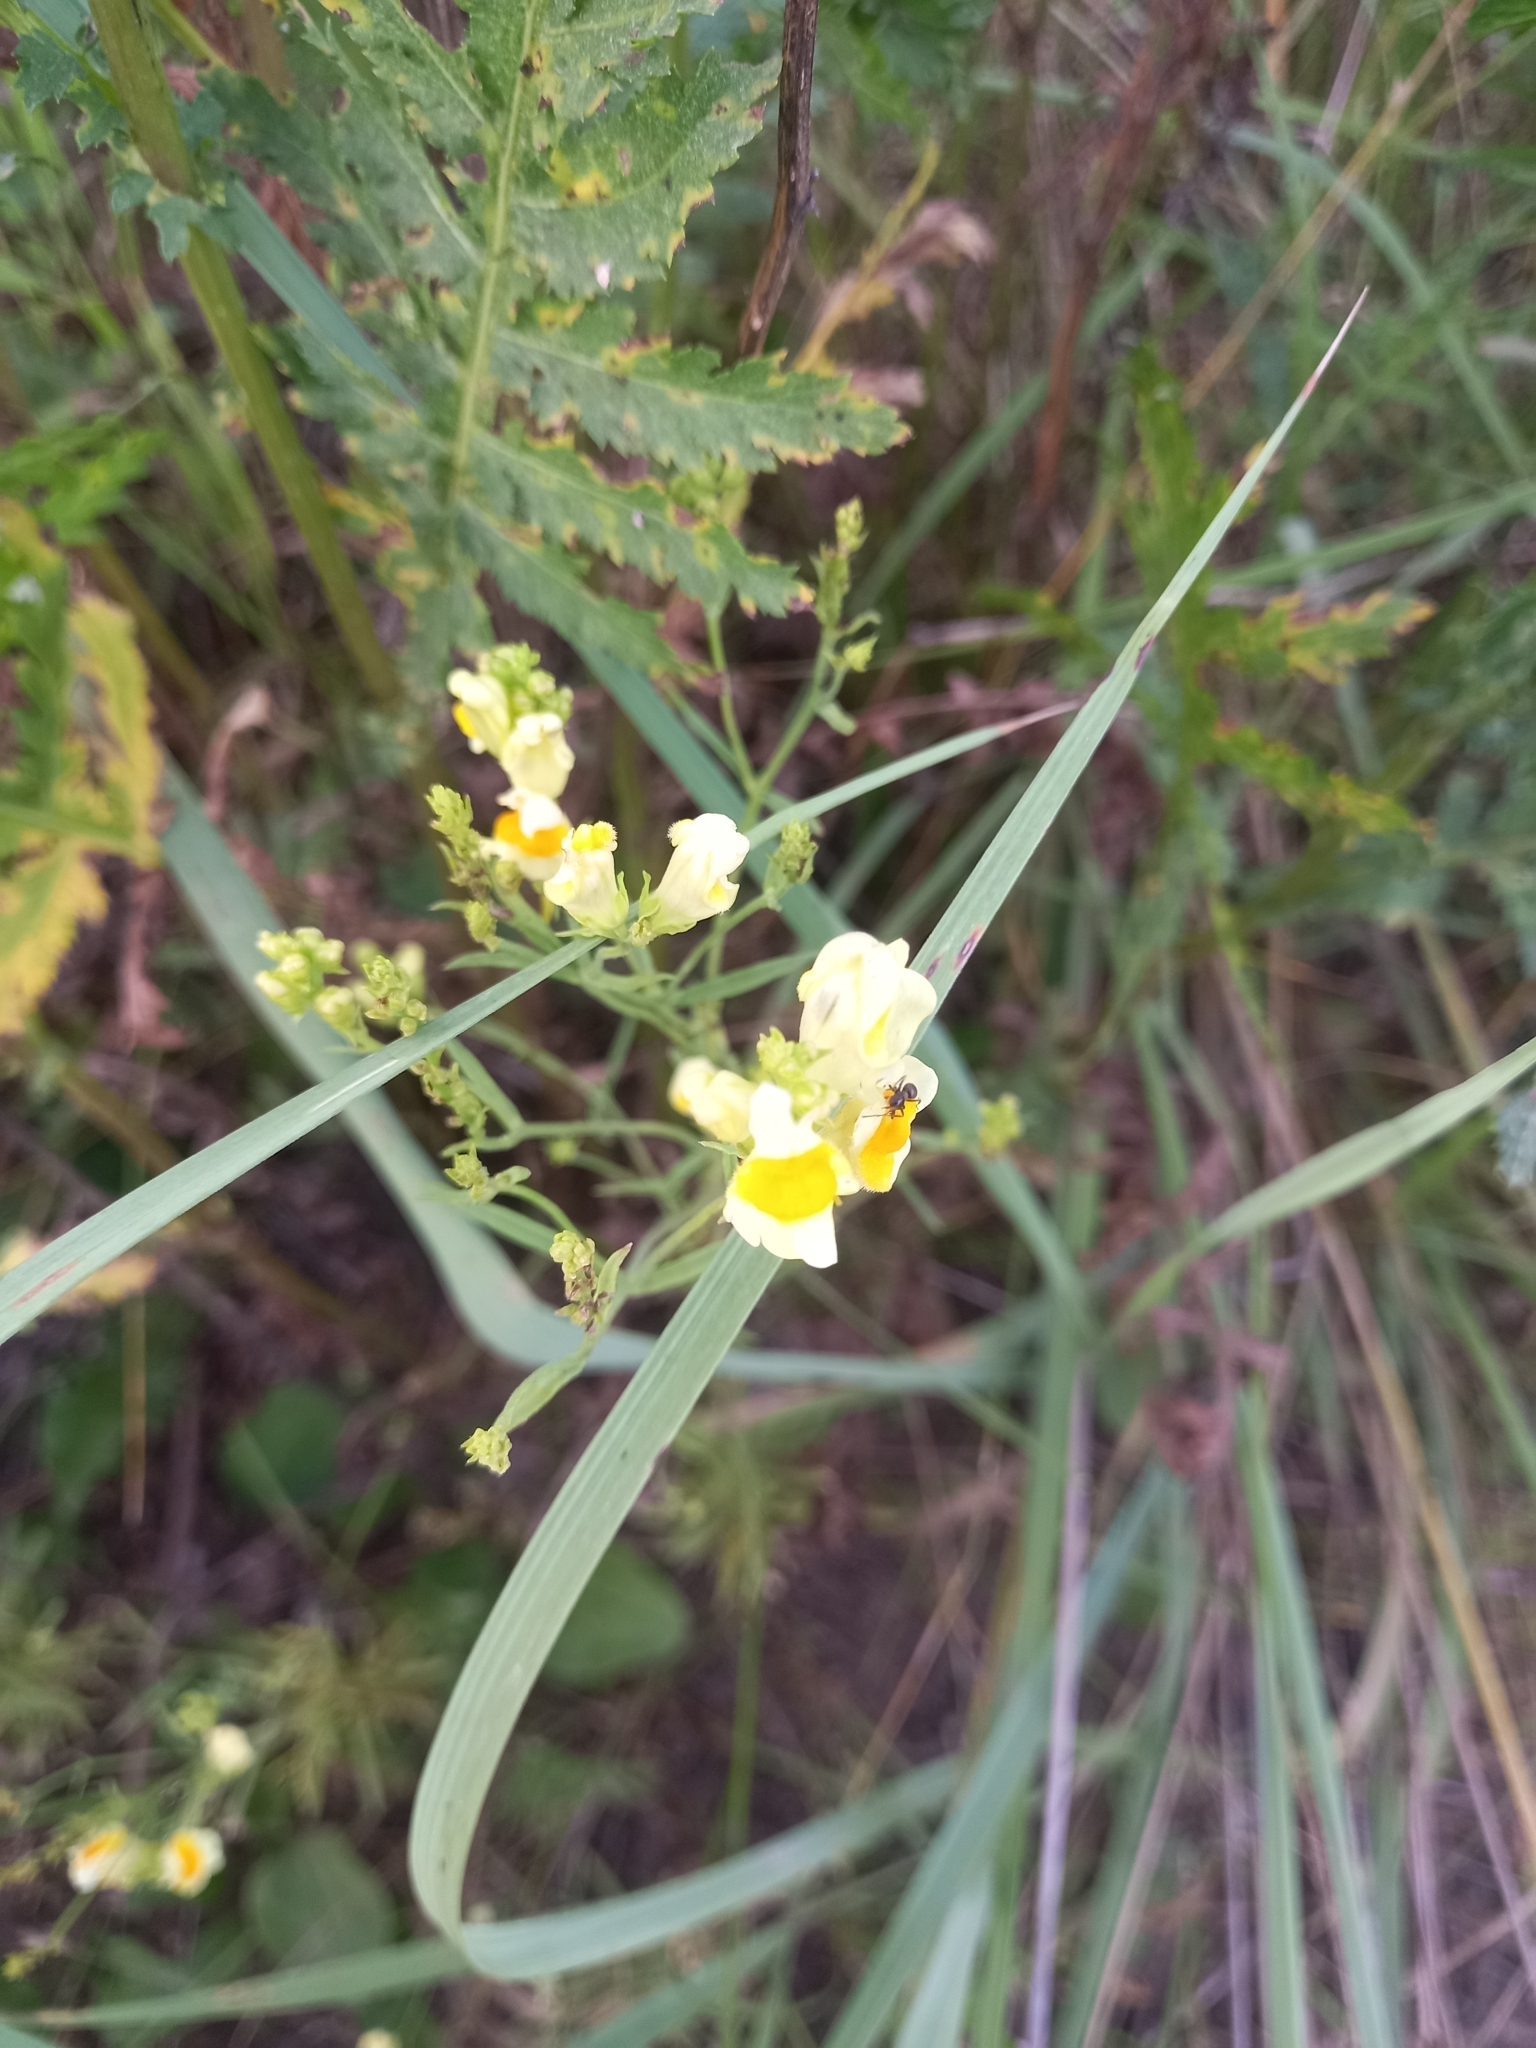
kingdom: Plantae
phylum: Tracheophyta
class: Magnoliopsida
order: Lamiales
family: Plantaginaceae
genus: Linaria
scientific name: Linaria vulgaris
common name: Butter and eggs
